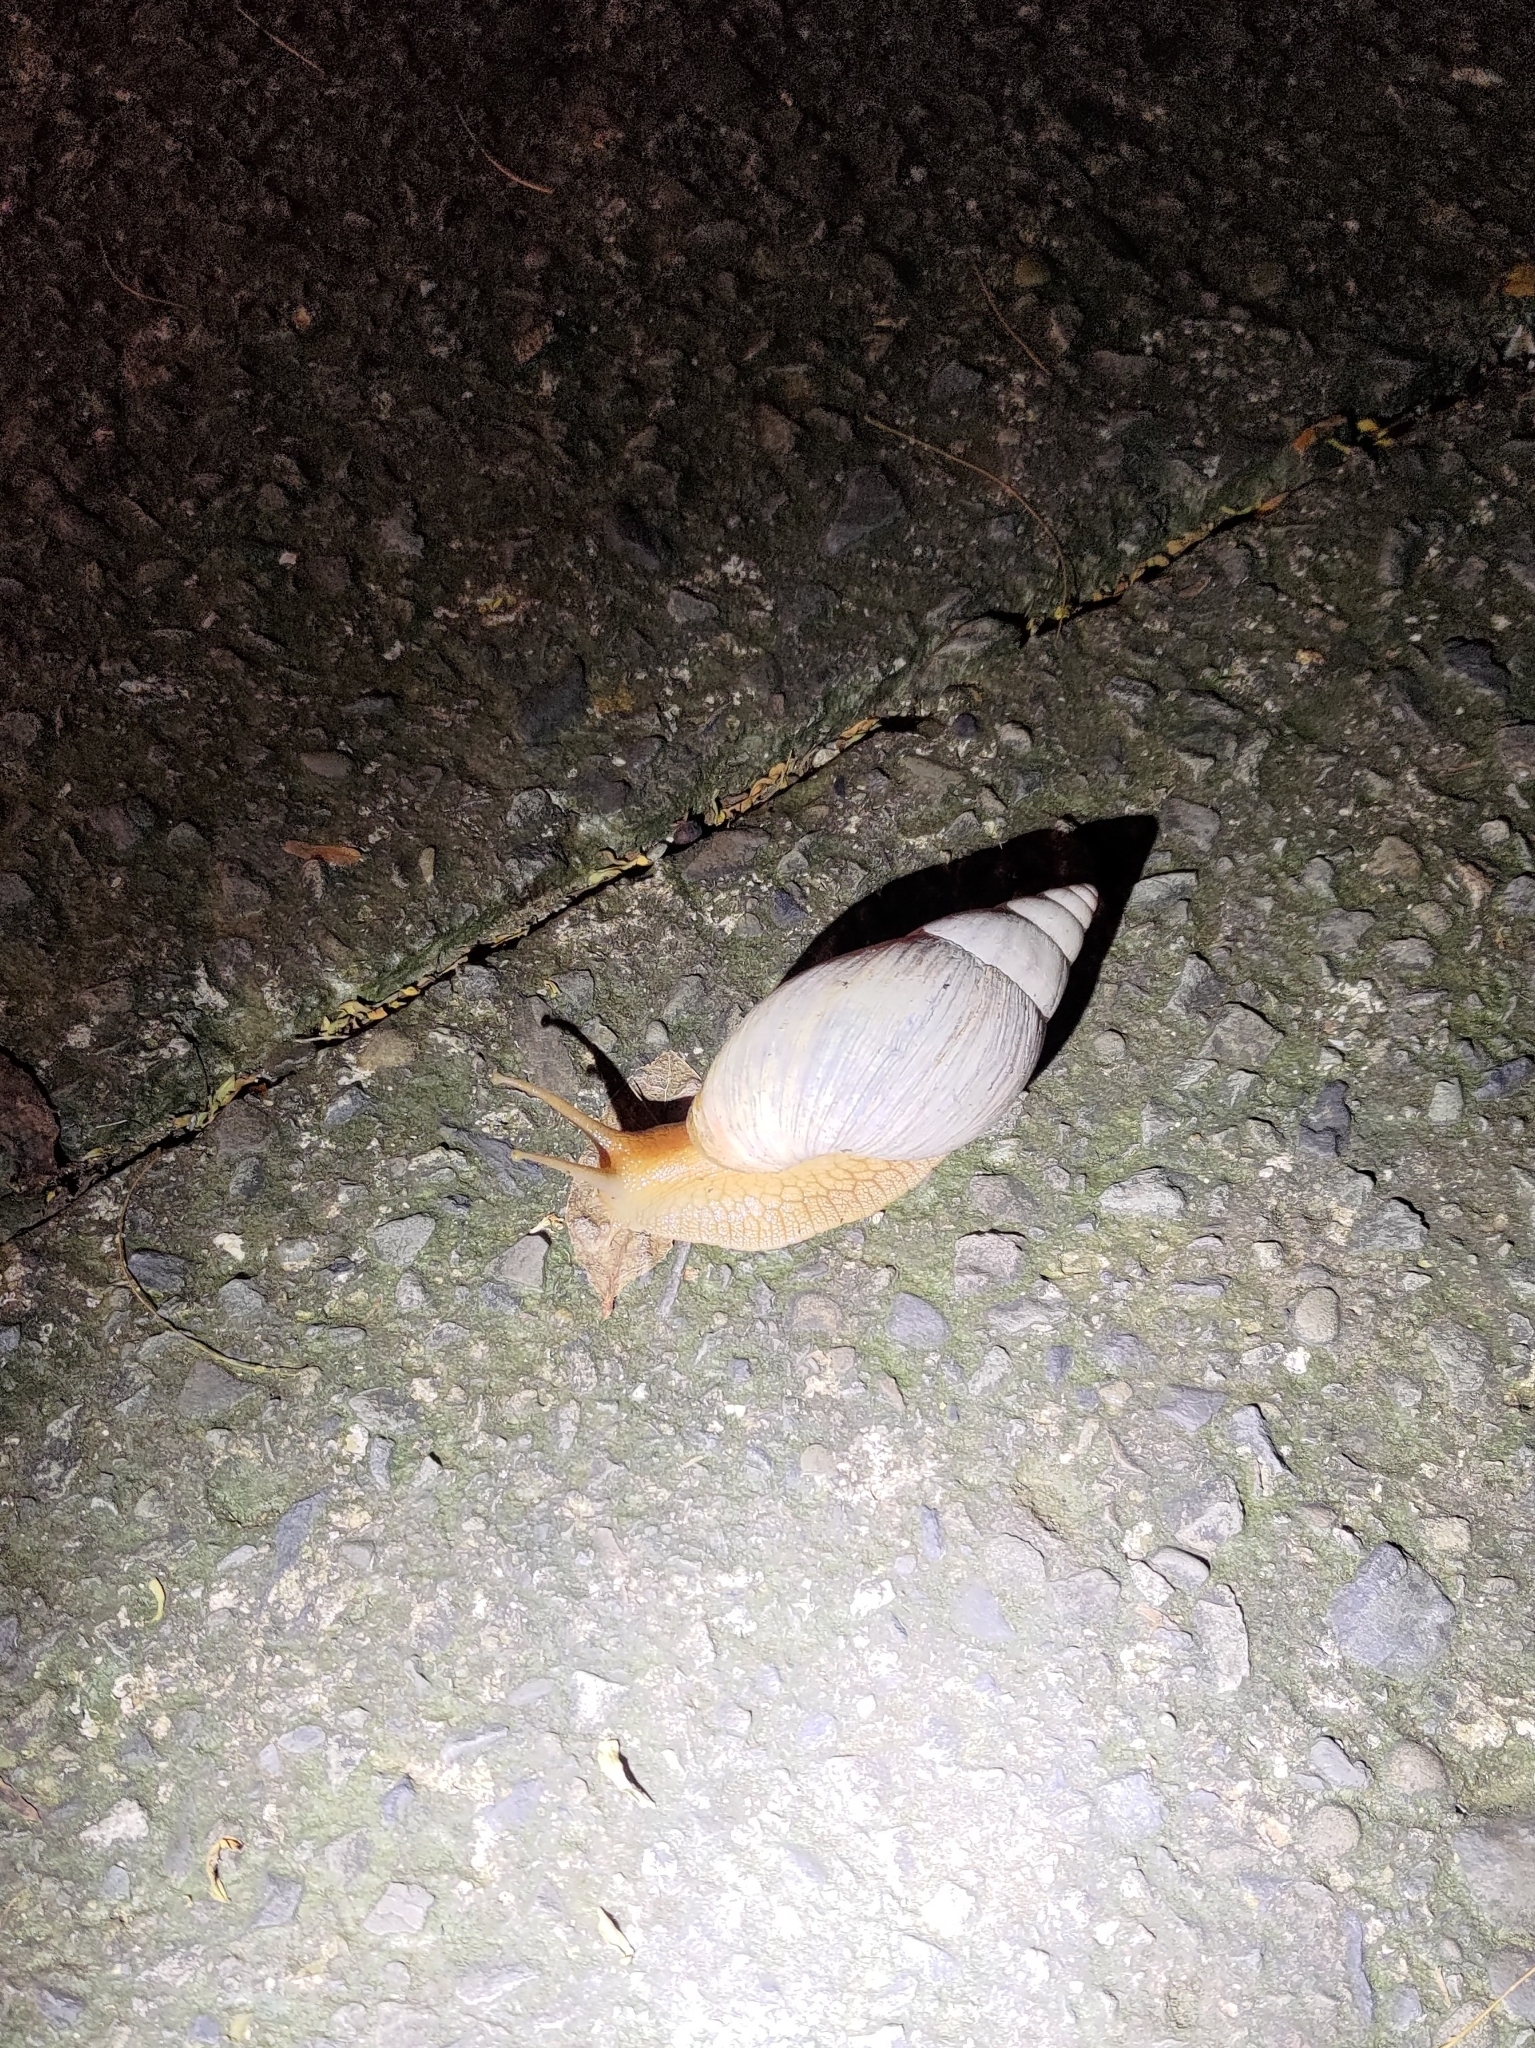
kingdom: Animalia
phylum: Mollusca
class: Gastropoda
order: Stylommatophora
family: Achatinidae
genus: Lissachatina
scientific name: Lissachatina immaculata
